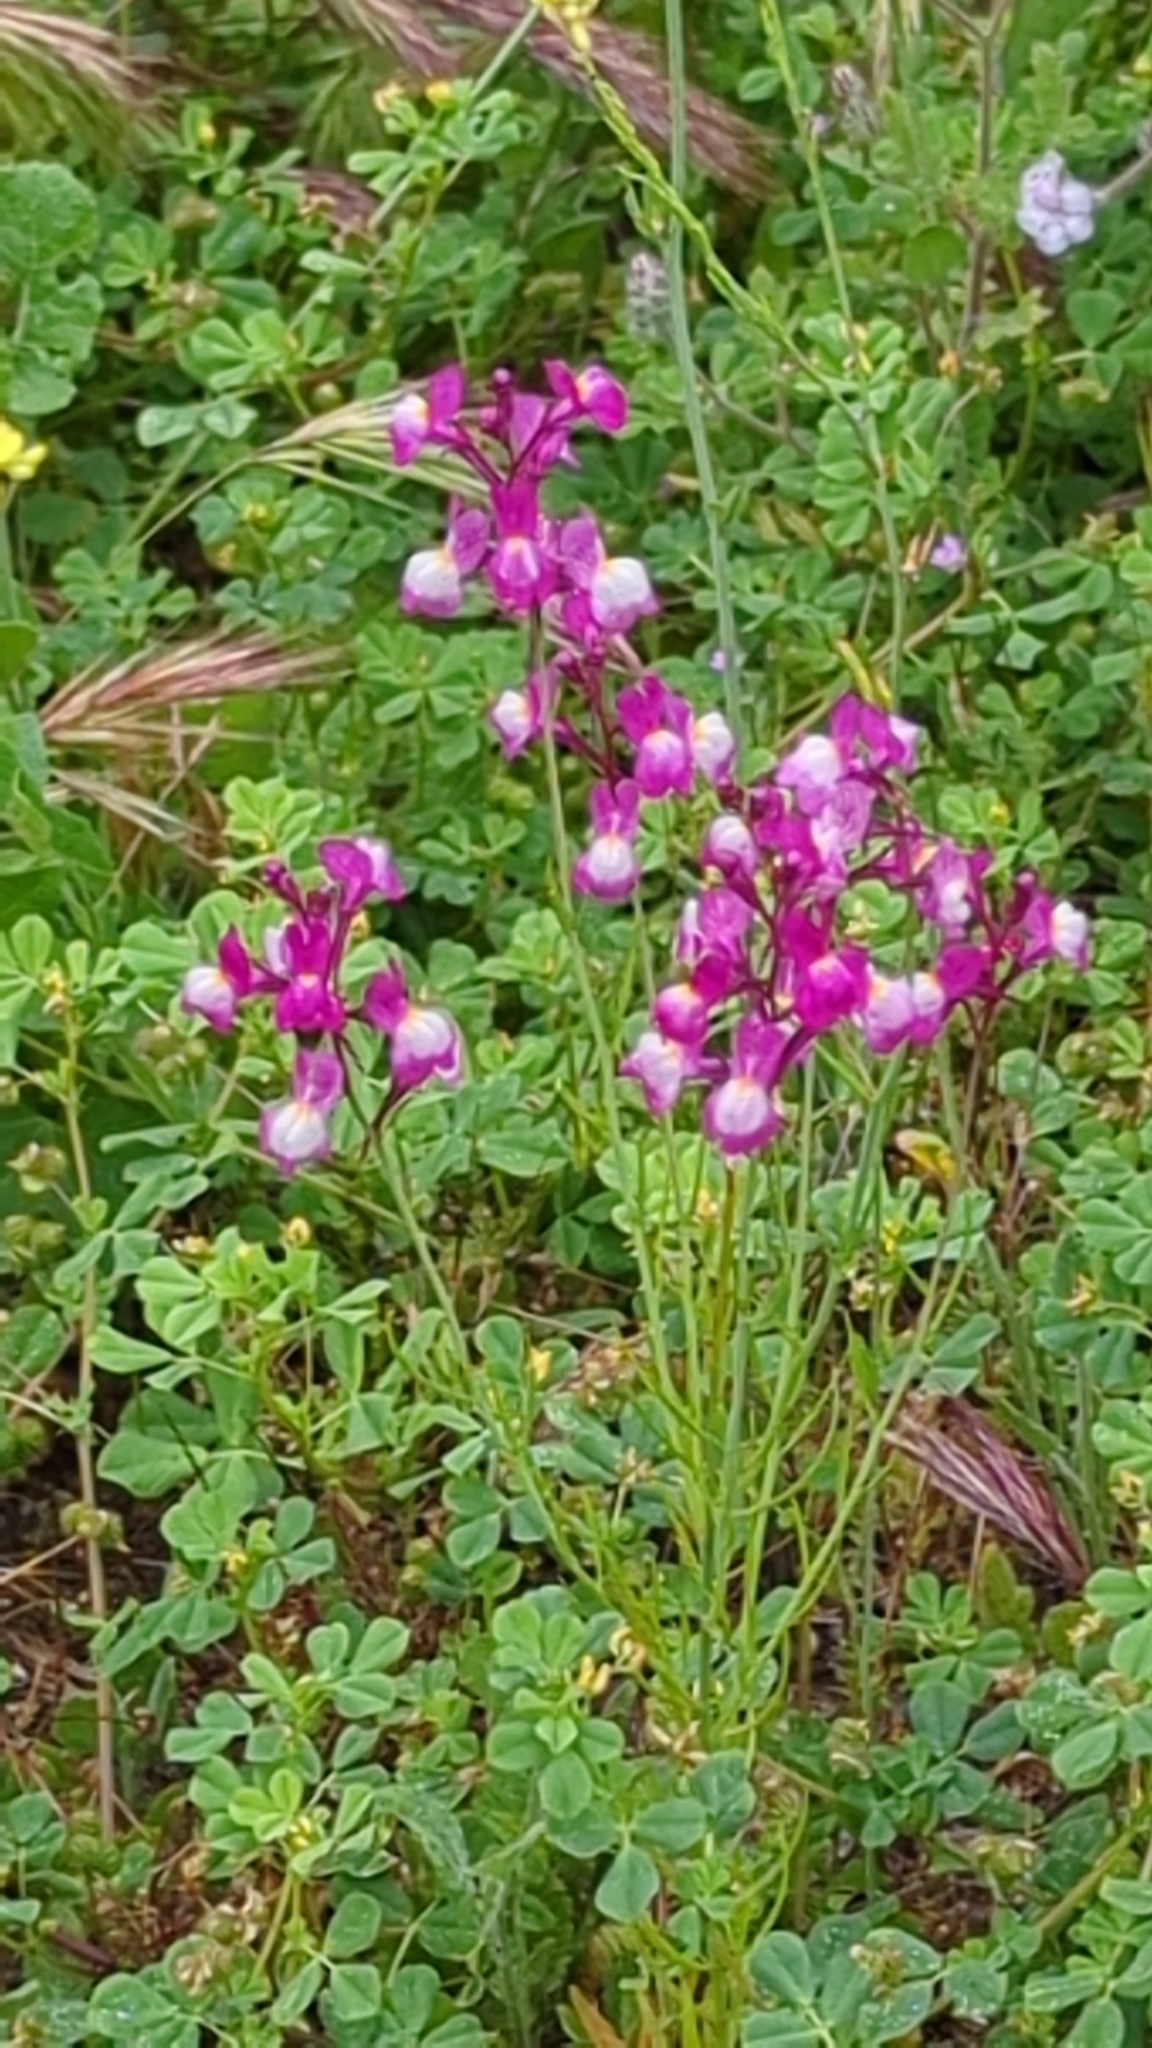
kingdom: Plantae
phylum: Tracheophyta
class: Magnoliopsida
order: Lamiales
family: Plantaginaceae
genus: Linaria
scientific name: Linaria maroccana
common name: Moroccan toadflax
